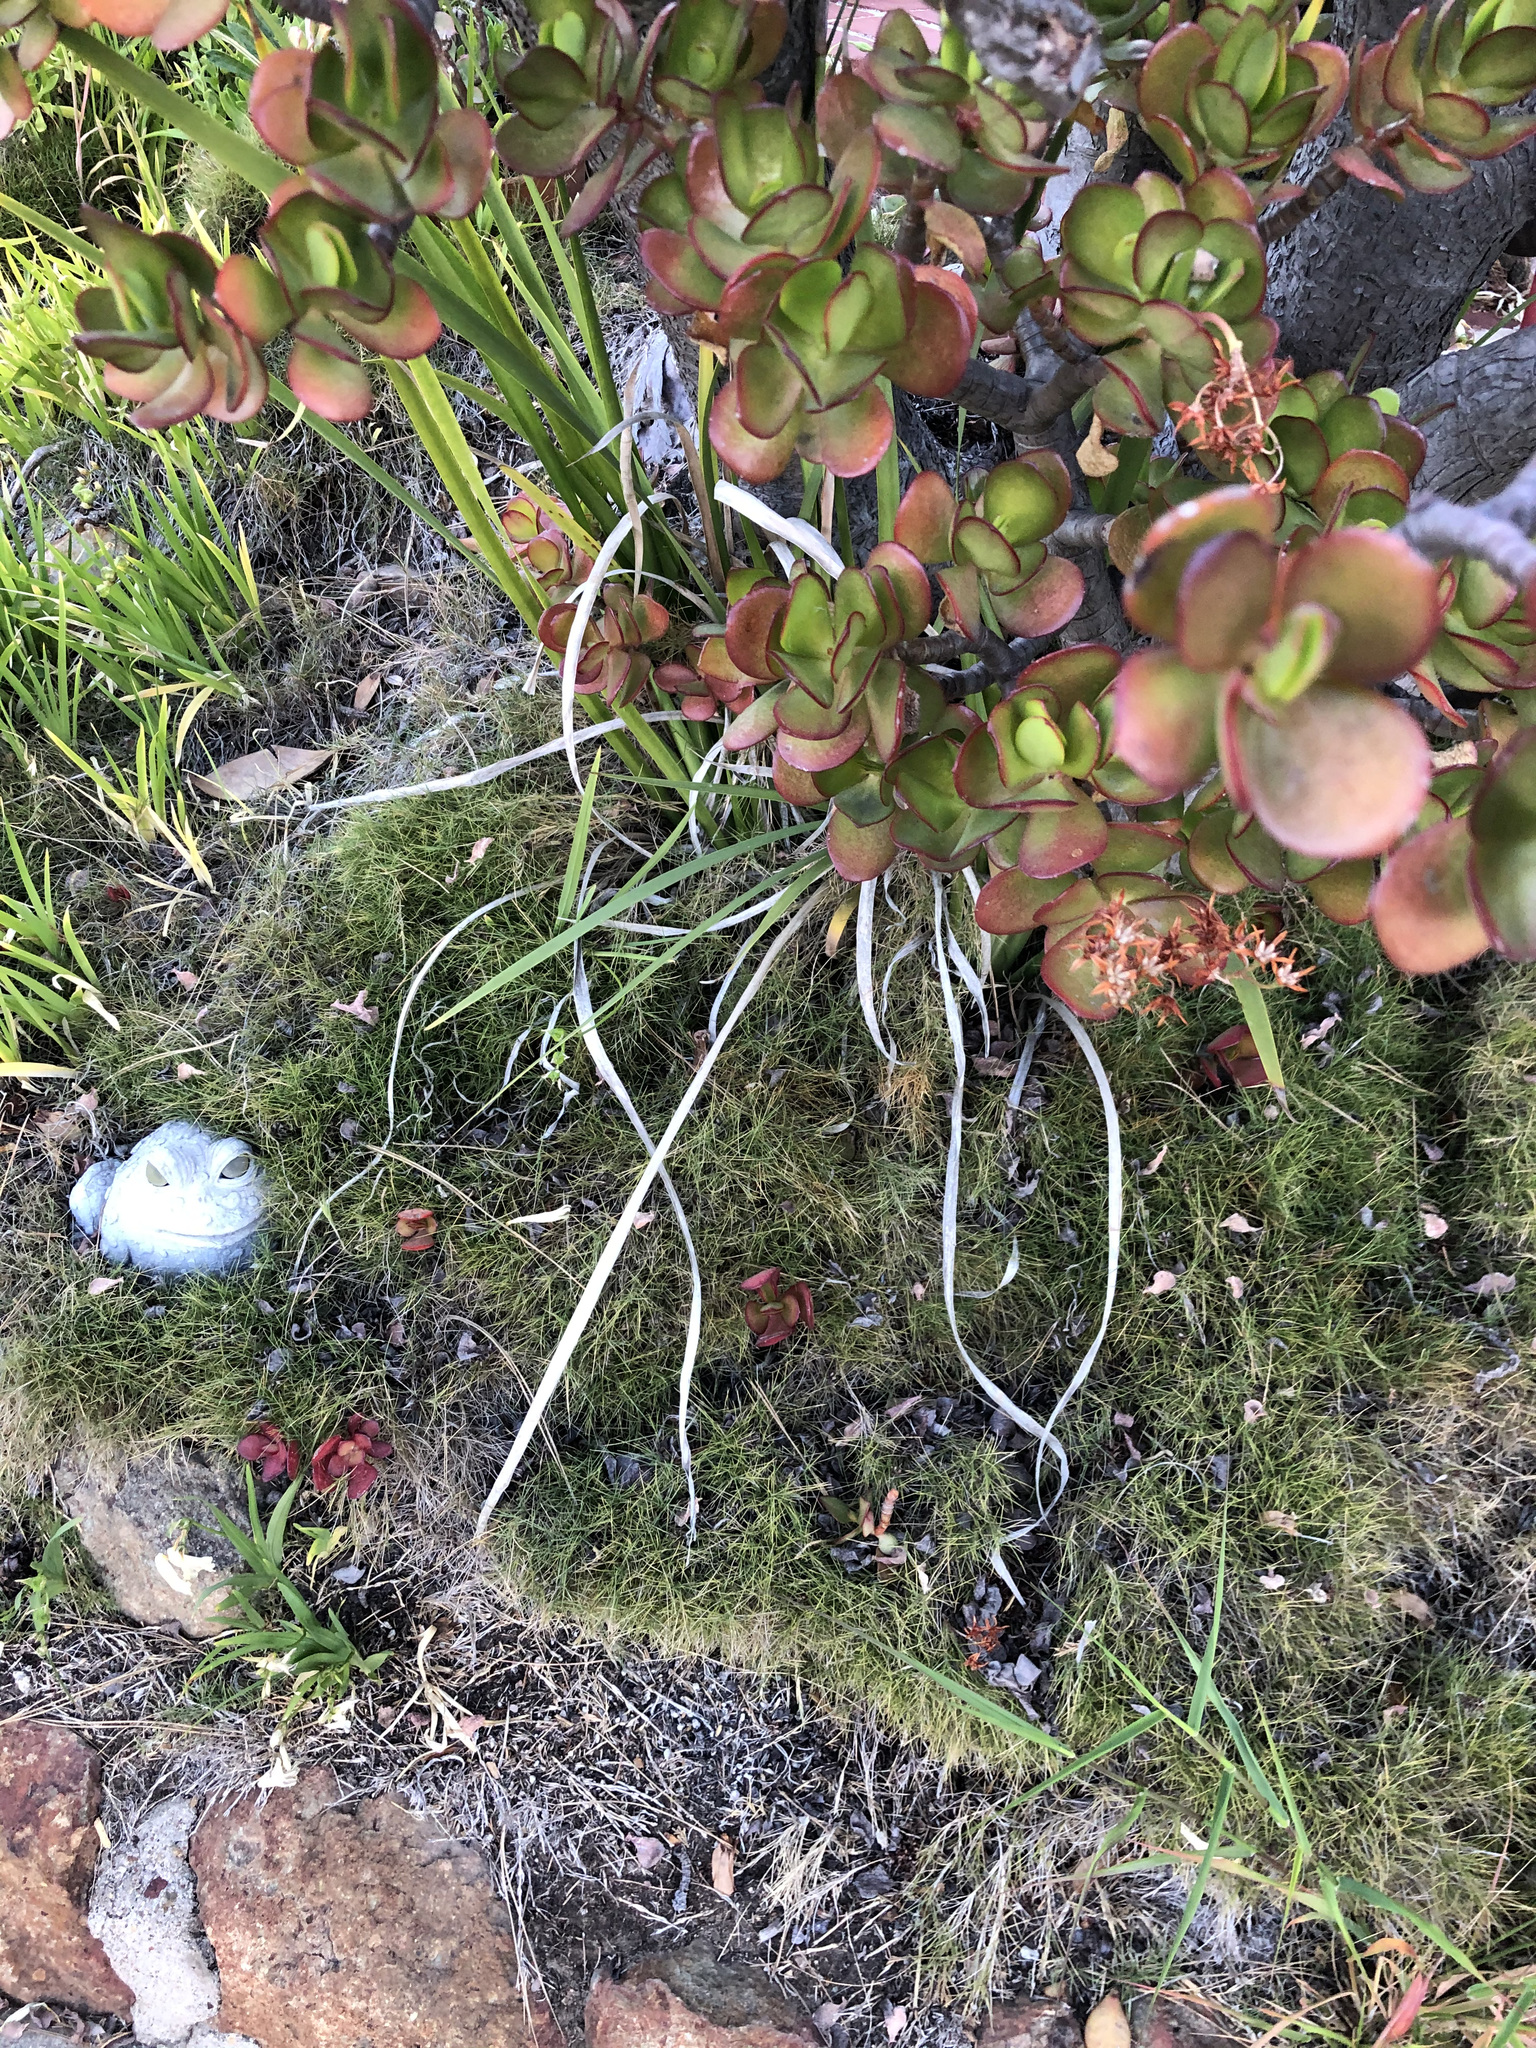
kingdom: Plantae
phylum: Tracheophyta
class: Magnoliopsida
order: Saxifragales
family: Crassulaceae
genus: Crassula
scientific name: Crassula ovata
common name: Jade plant
